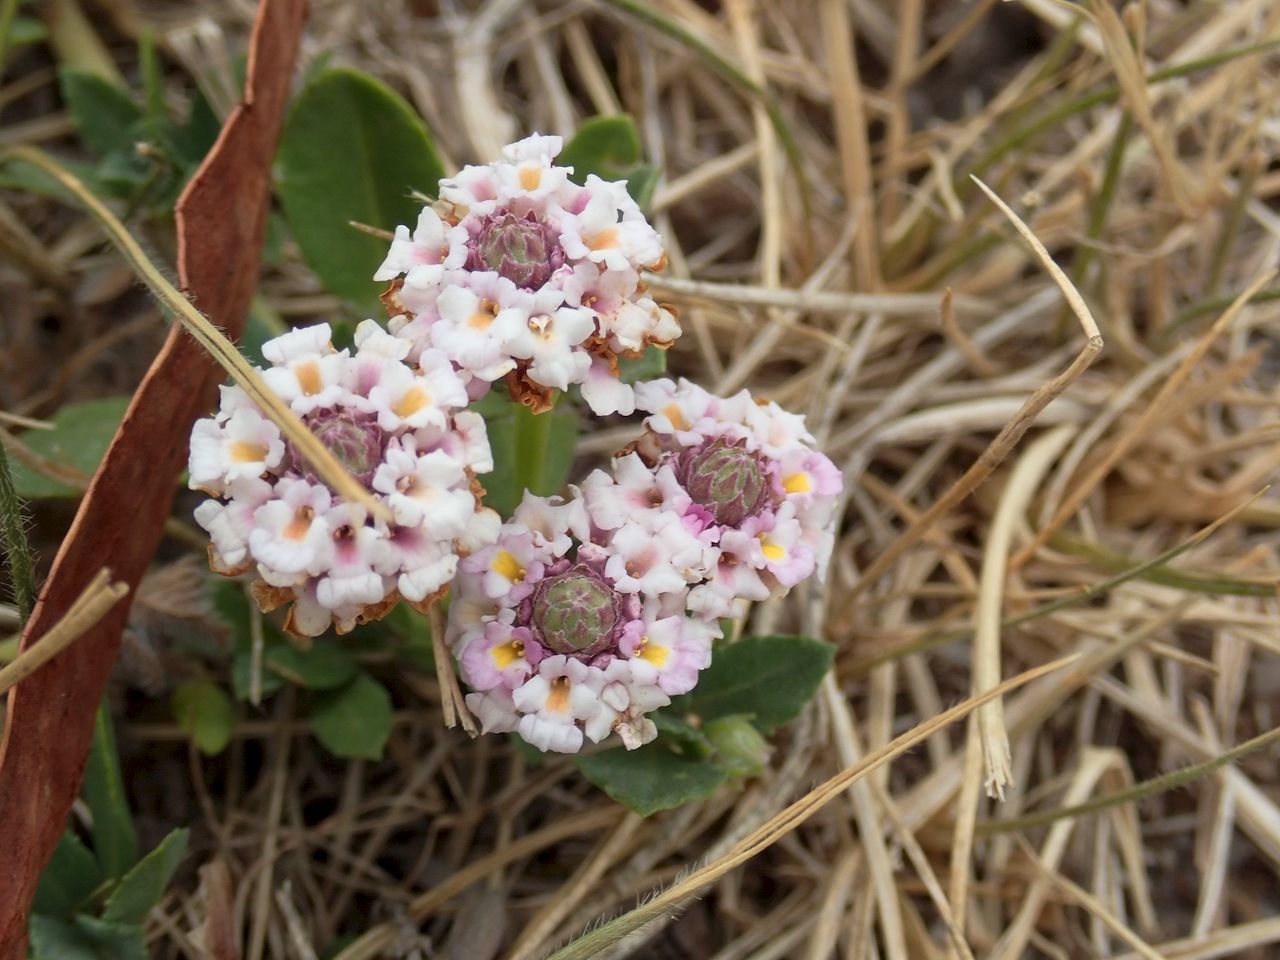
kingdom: Plantae
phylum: Tracheophyta
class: Magnoliopsida
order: Lamiales
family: Verbenaceae
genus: Phyla
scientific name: Phyla nodiflora
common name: Frogfruit
